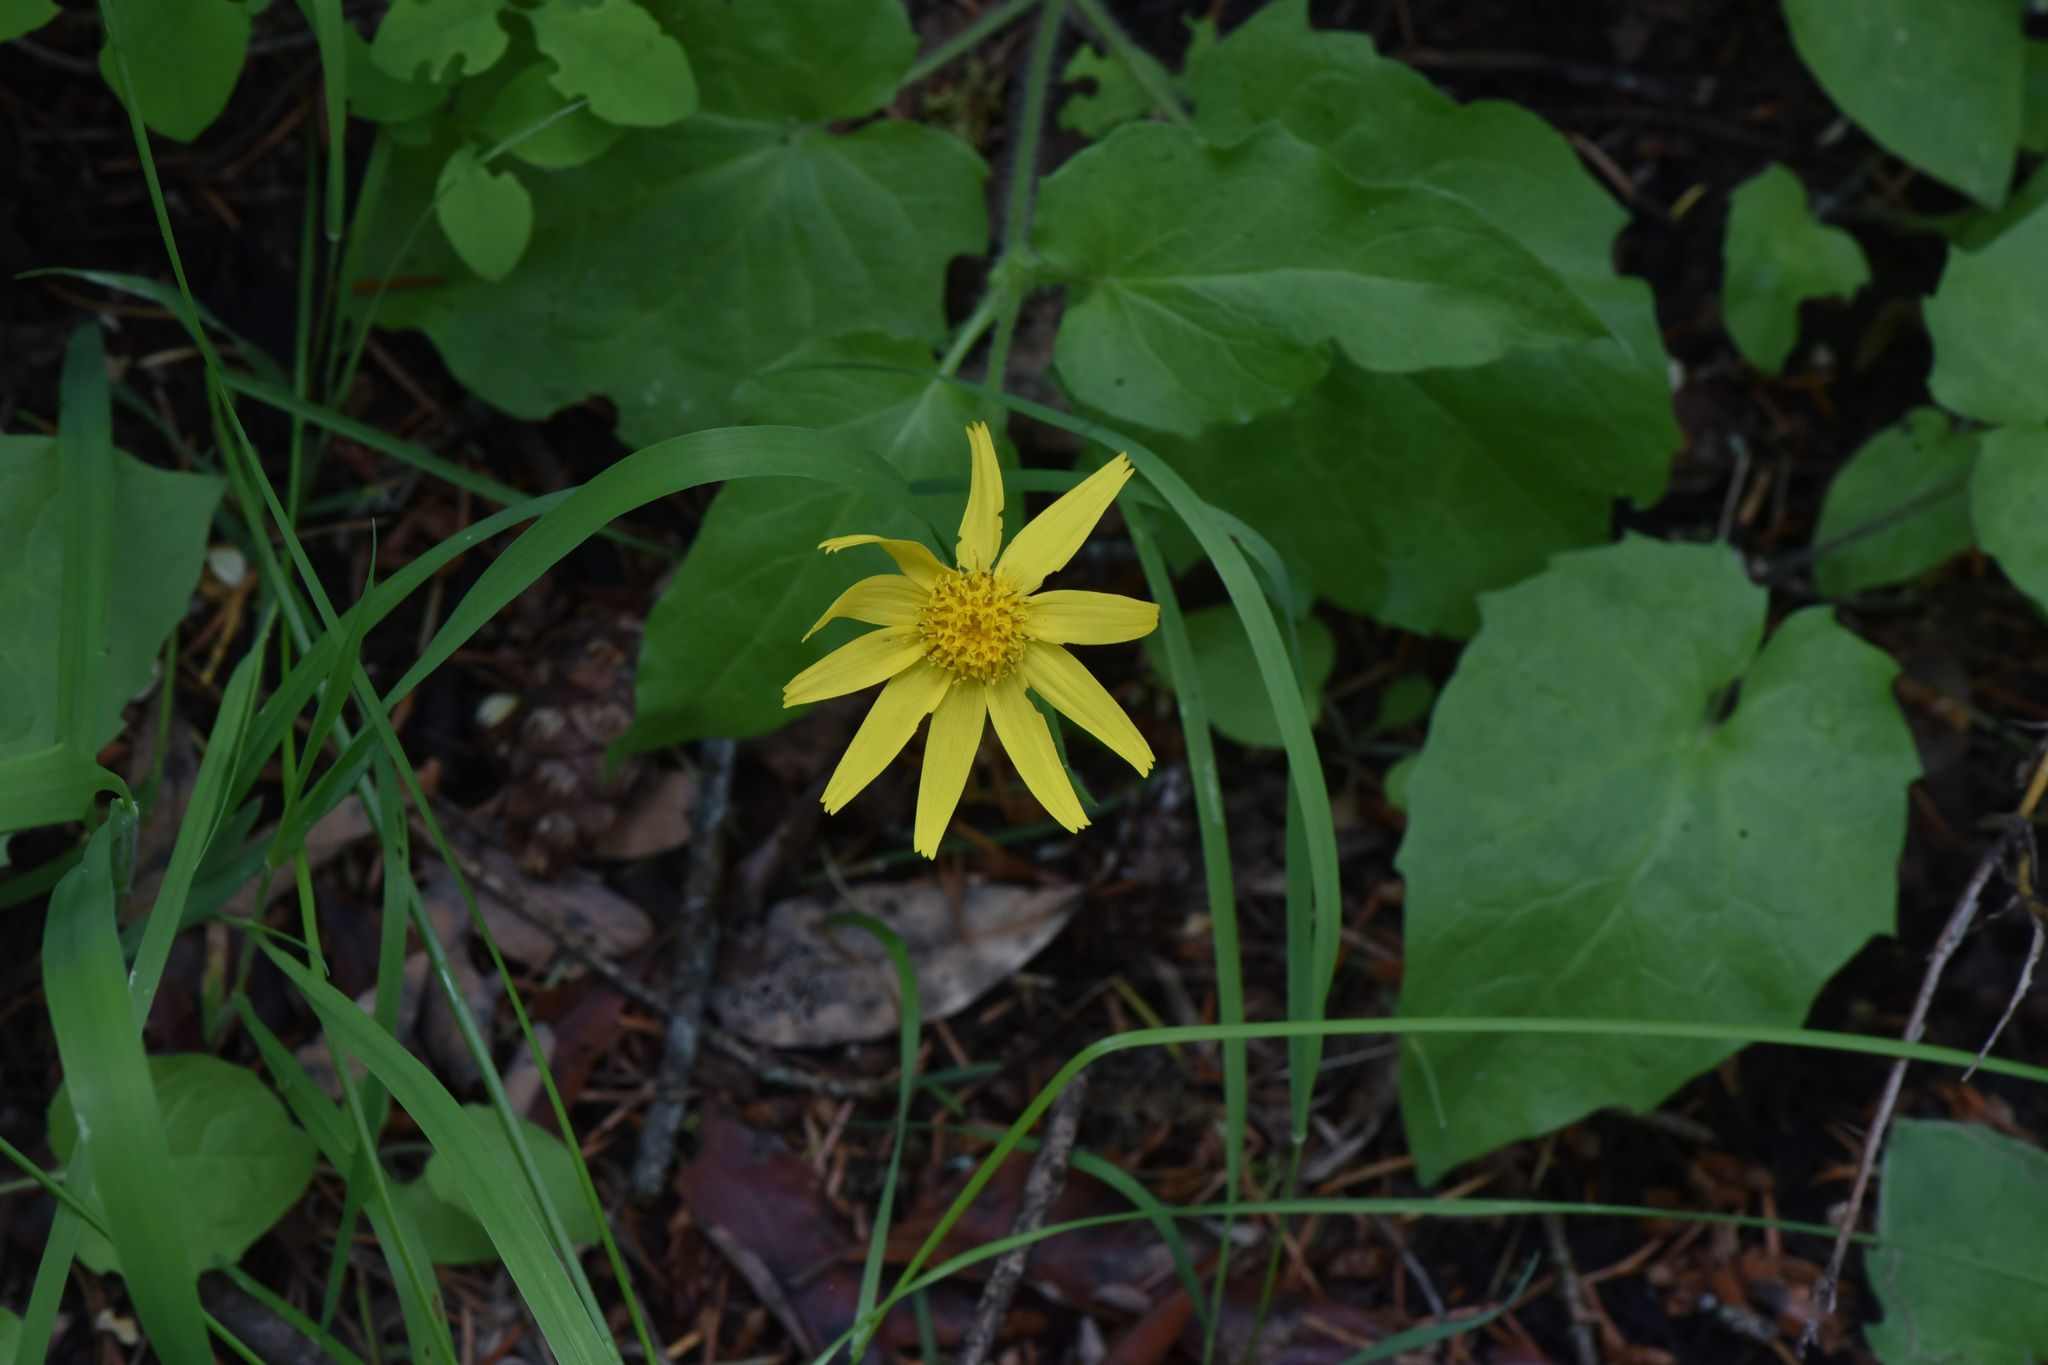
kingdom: Plantae
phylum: Tracheophyta
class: Magnoliopsida
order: Asterales
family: Asteraceae
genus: Arnica
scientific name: Arnica cordifolia
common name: Heart-leaf arnica
